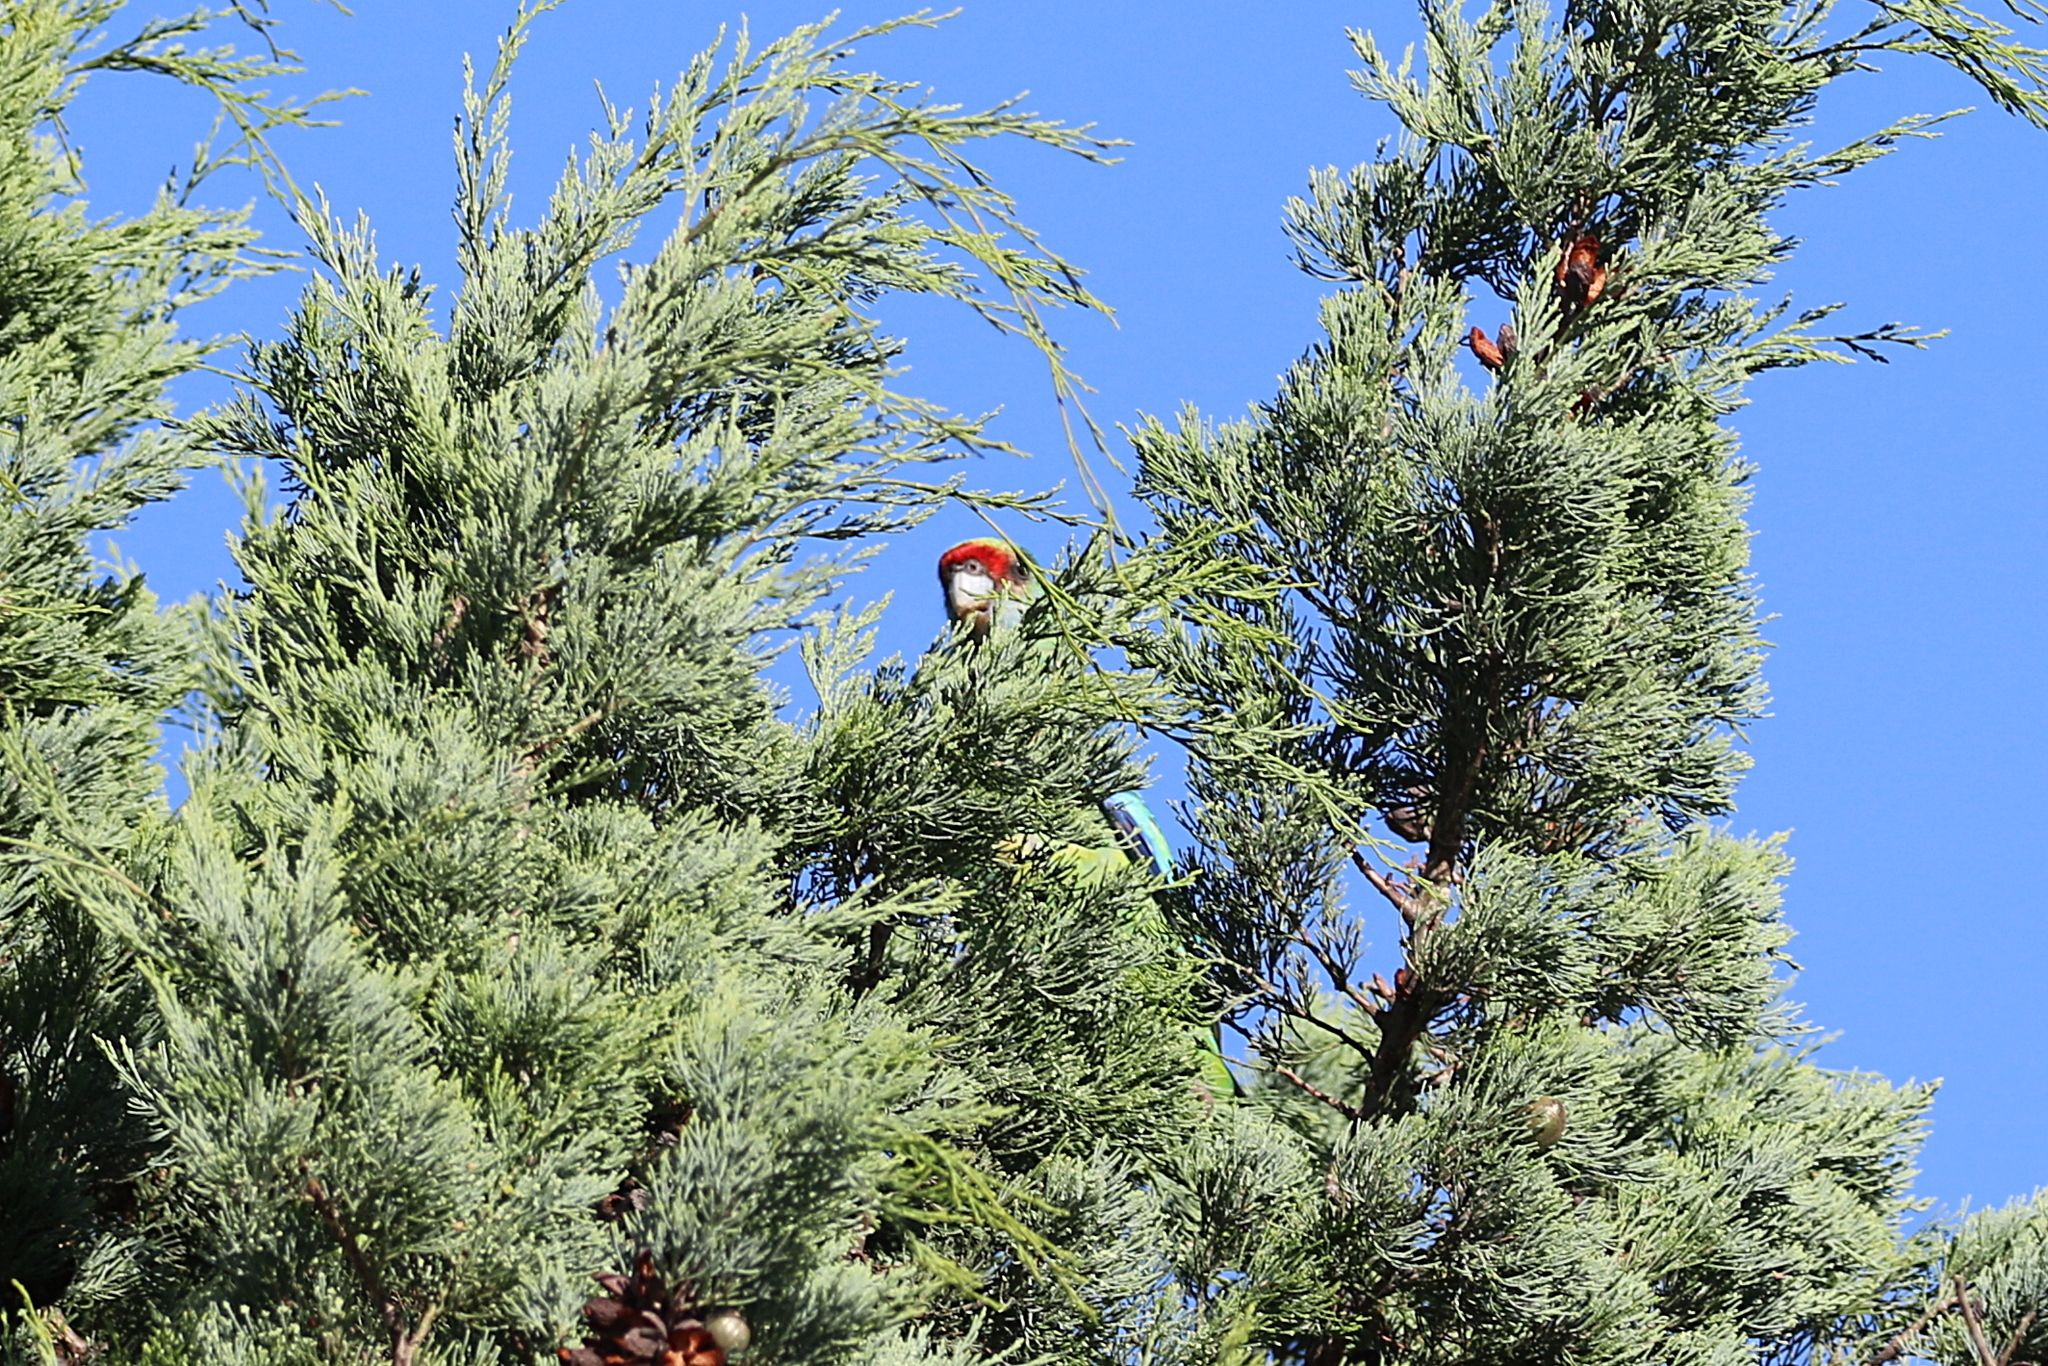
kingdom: Animalia
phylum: Chordata
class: Aves
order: Psittaciformes
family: Psittacidae
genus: Barnardius
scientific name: Barnardius zonarius
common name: Australian ringneck
